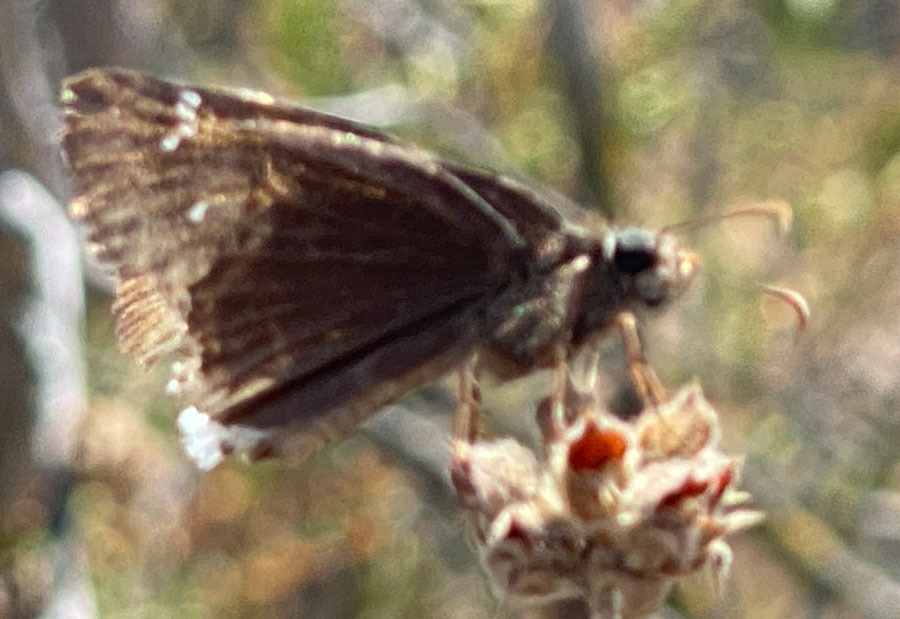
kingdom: Animalia
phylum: Arthropoda
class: Insecta
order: Lepidoptera
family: Hesperiidae
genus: Erynnis
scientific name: Erynnis tristis
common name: Mournful duskywing
